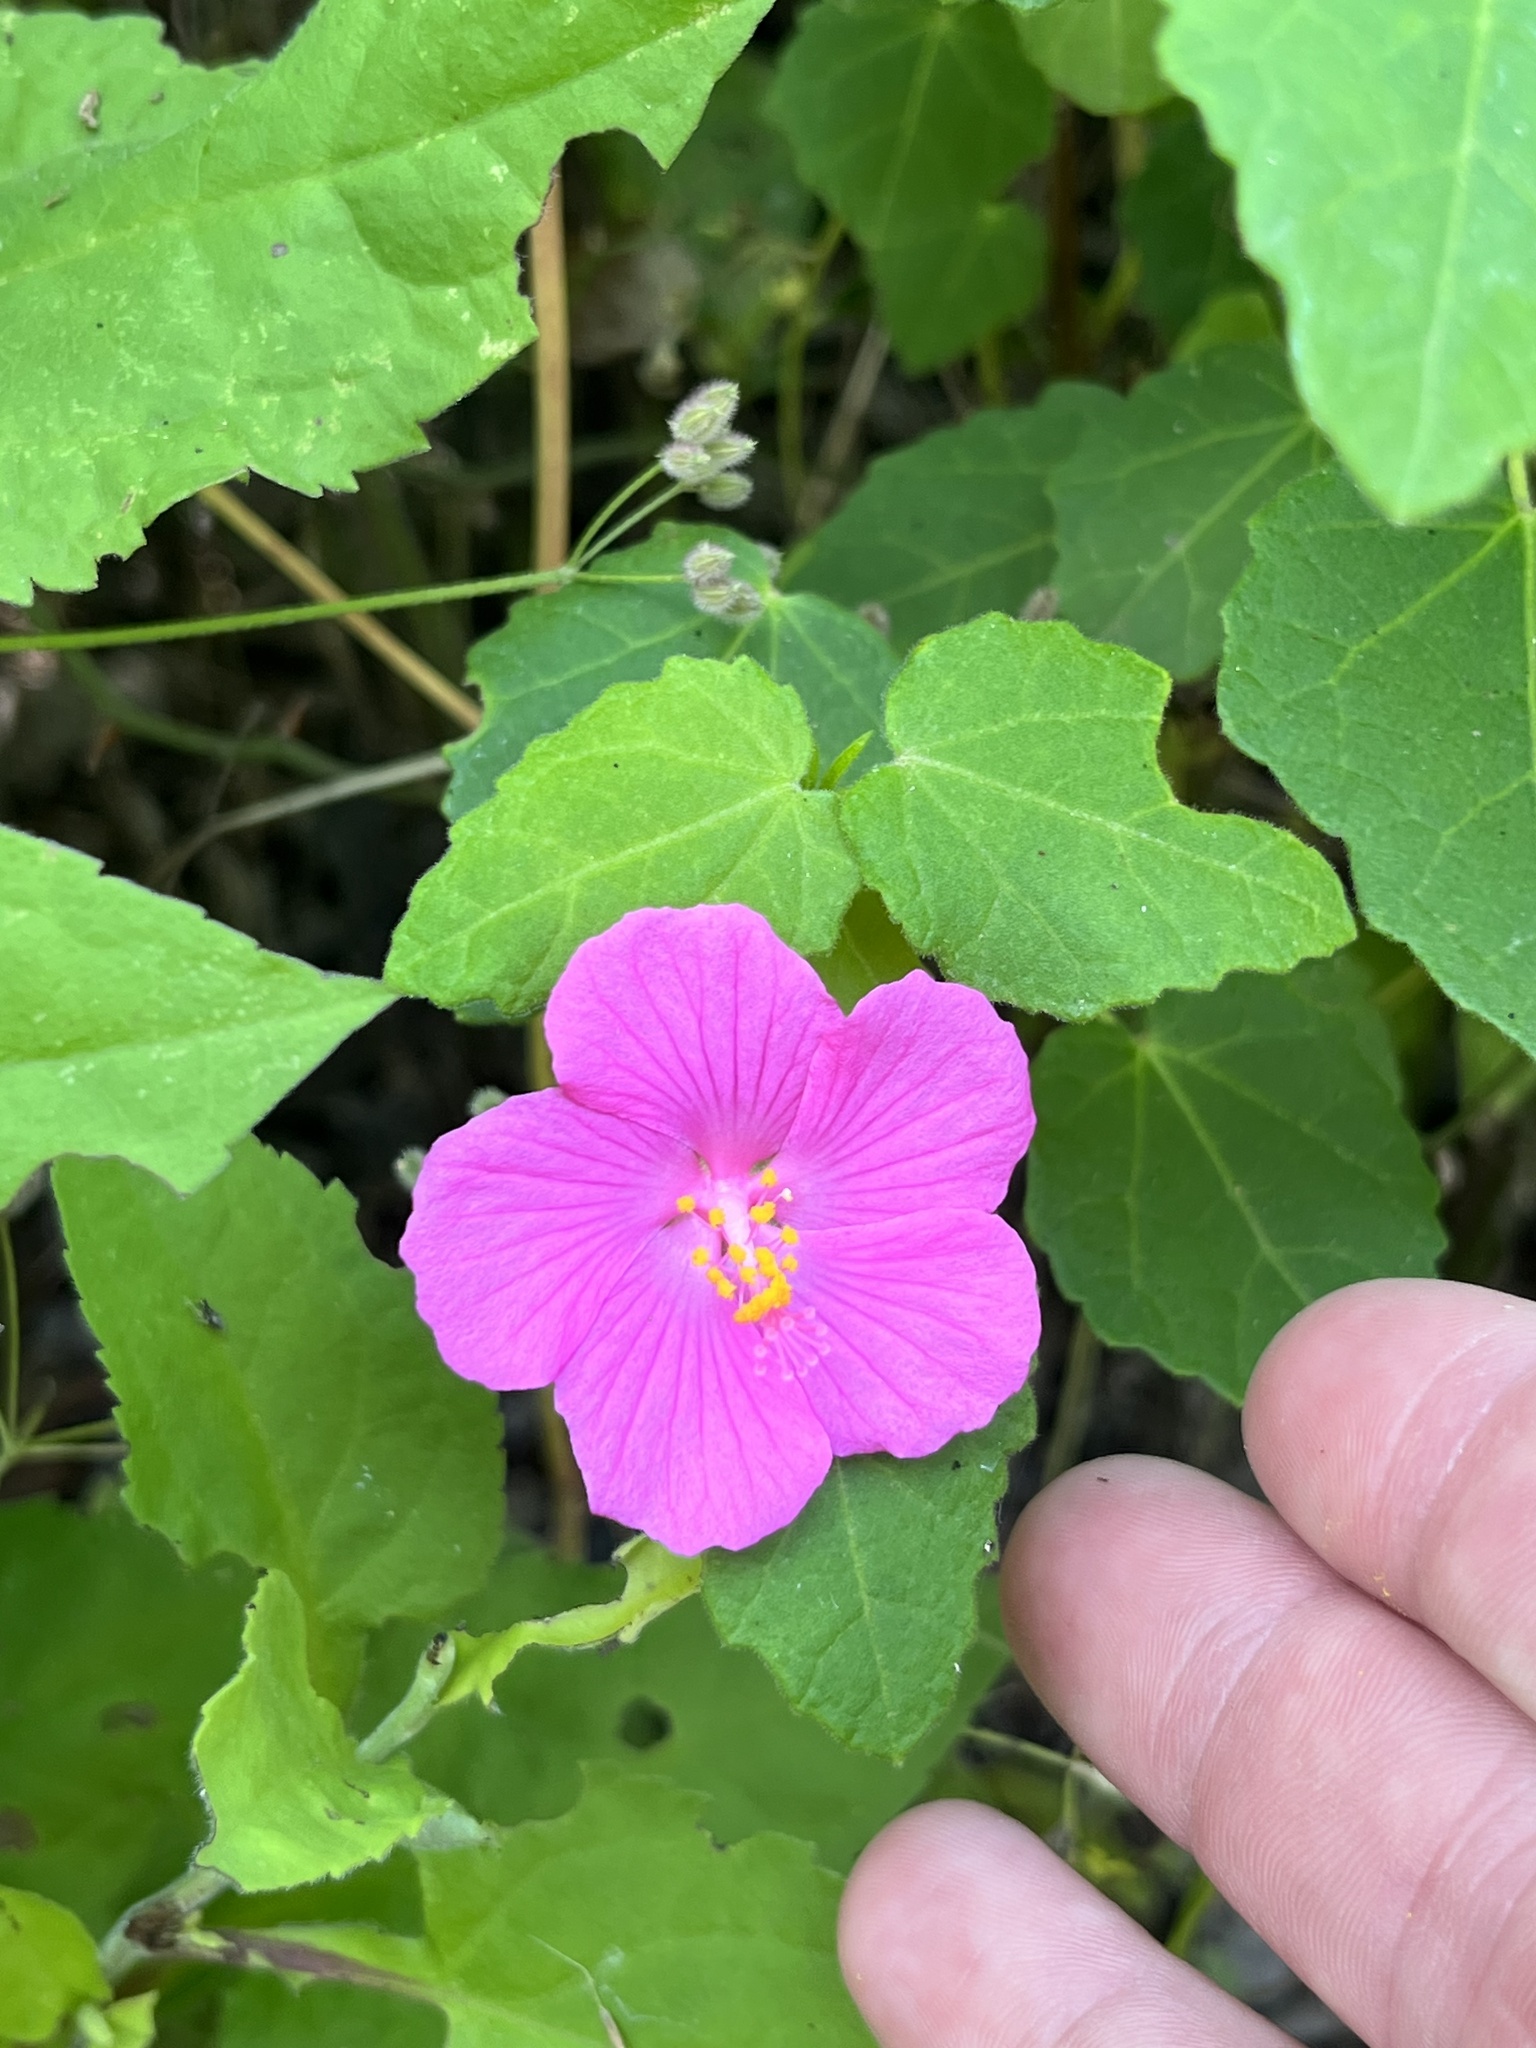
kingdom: Plantae
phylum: Tracheophyta
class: Magnoliopsida
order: Malvales
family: Malvaceae
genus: Pavonia
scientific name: Pavonia lasiopetala
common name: Texas swamp-mallow
